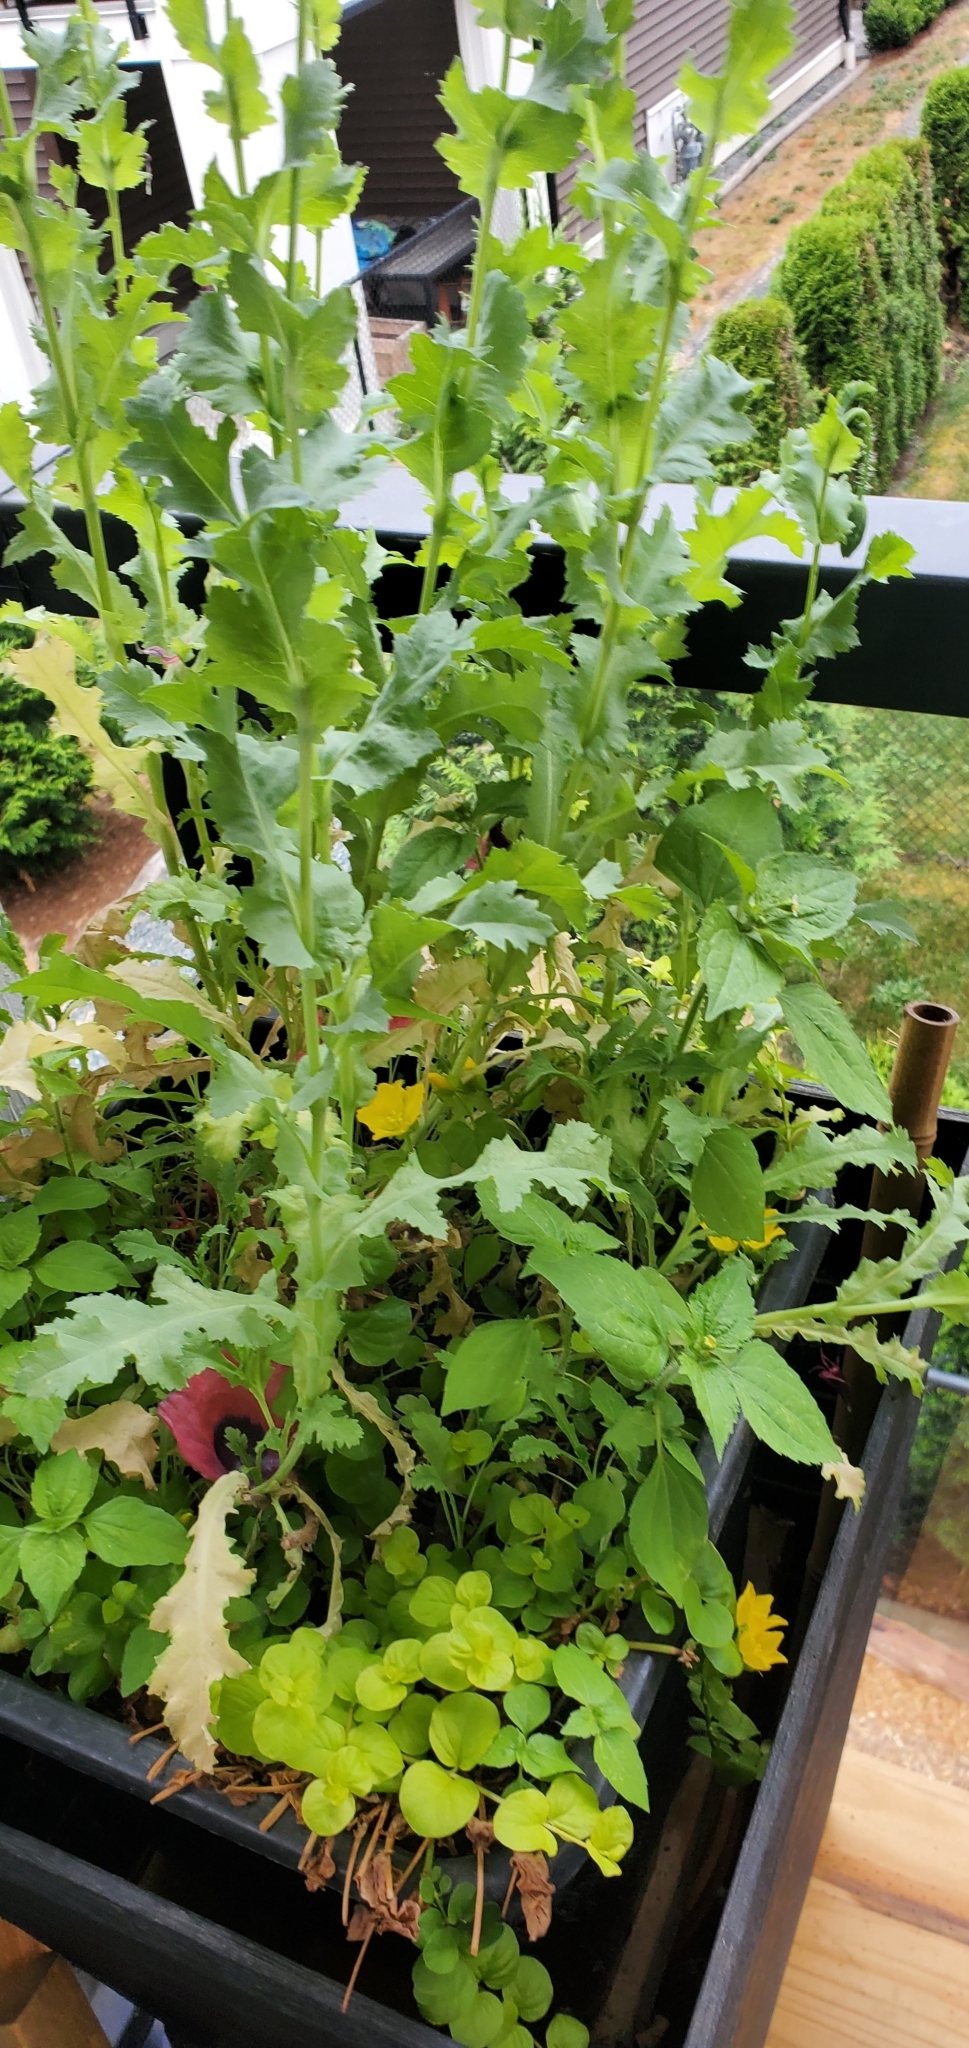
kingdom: Plantae
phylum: Tracheophyta
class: Magnoliopsida
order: Ranunculales
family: Papaveraceae
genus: Papaver
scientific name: Papaver somniferum
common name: Opium poppy
